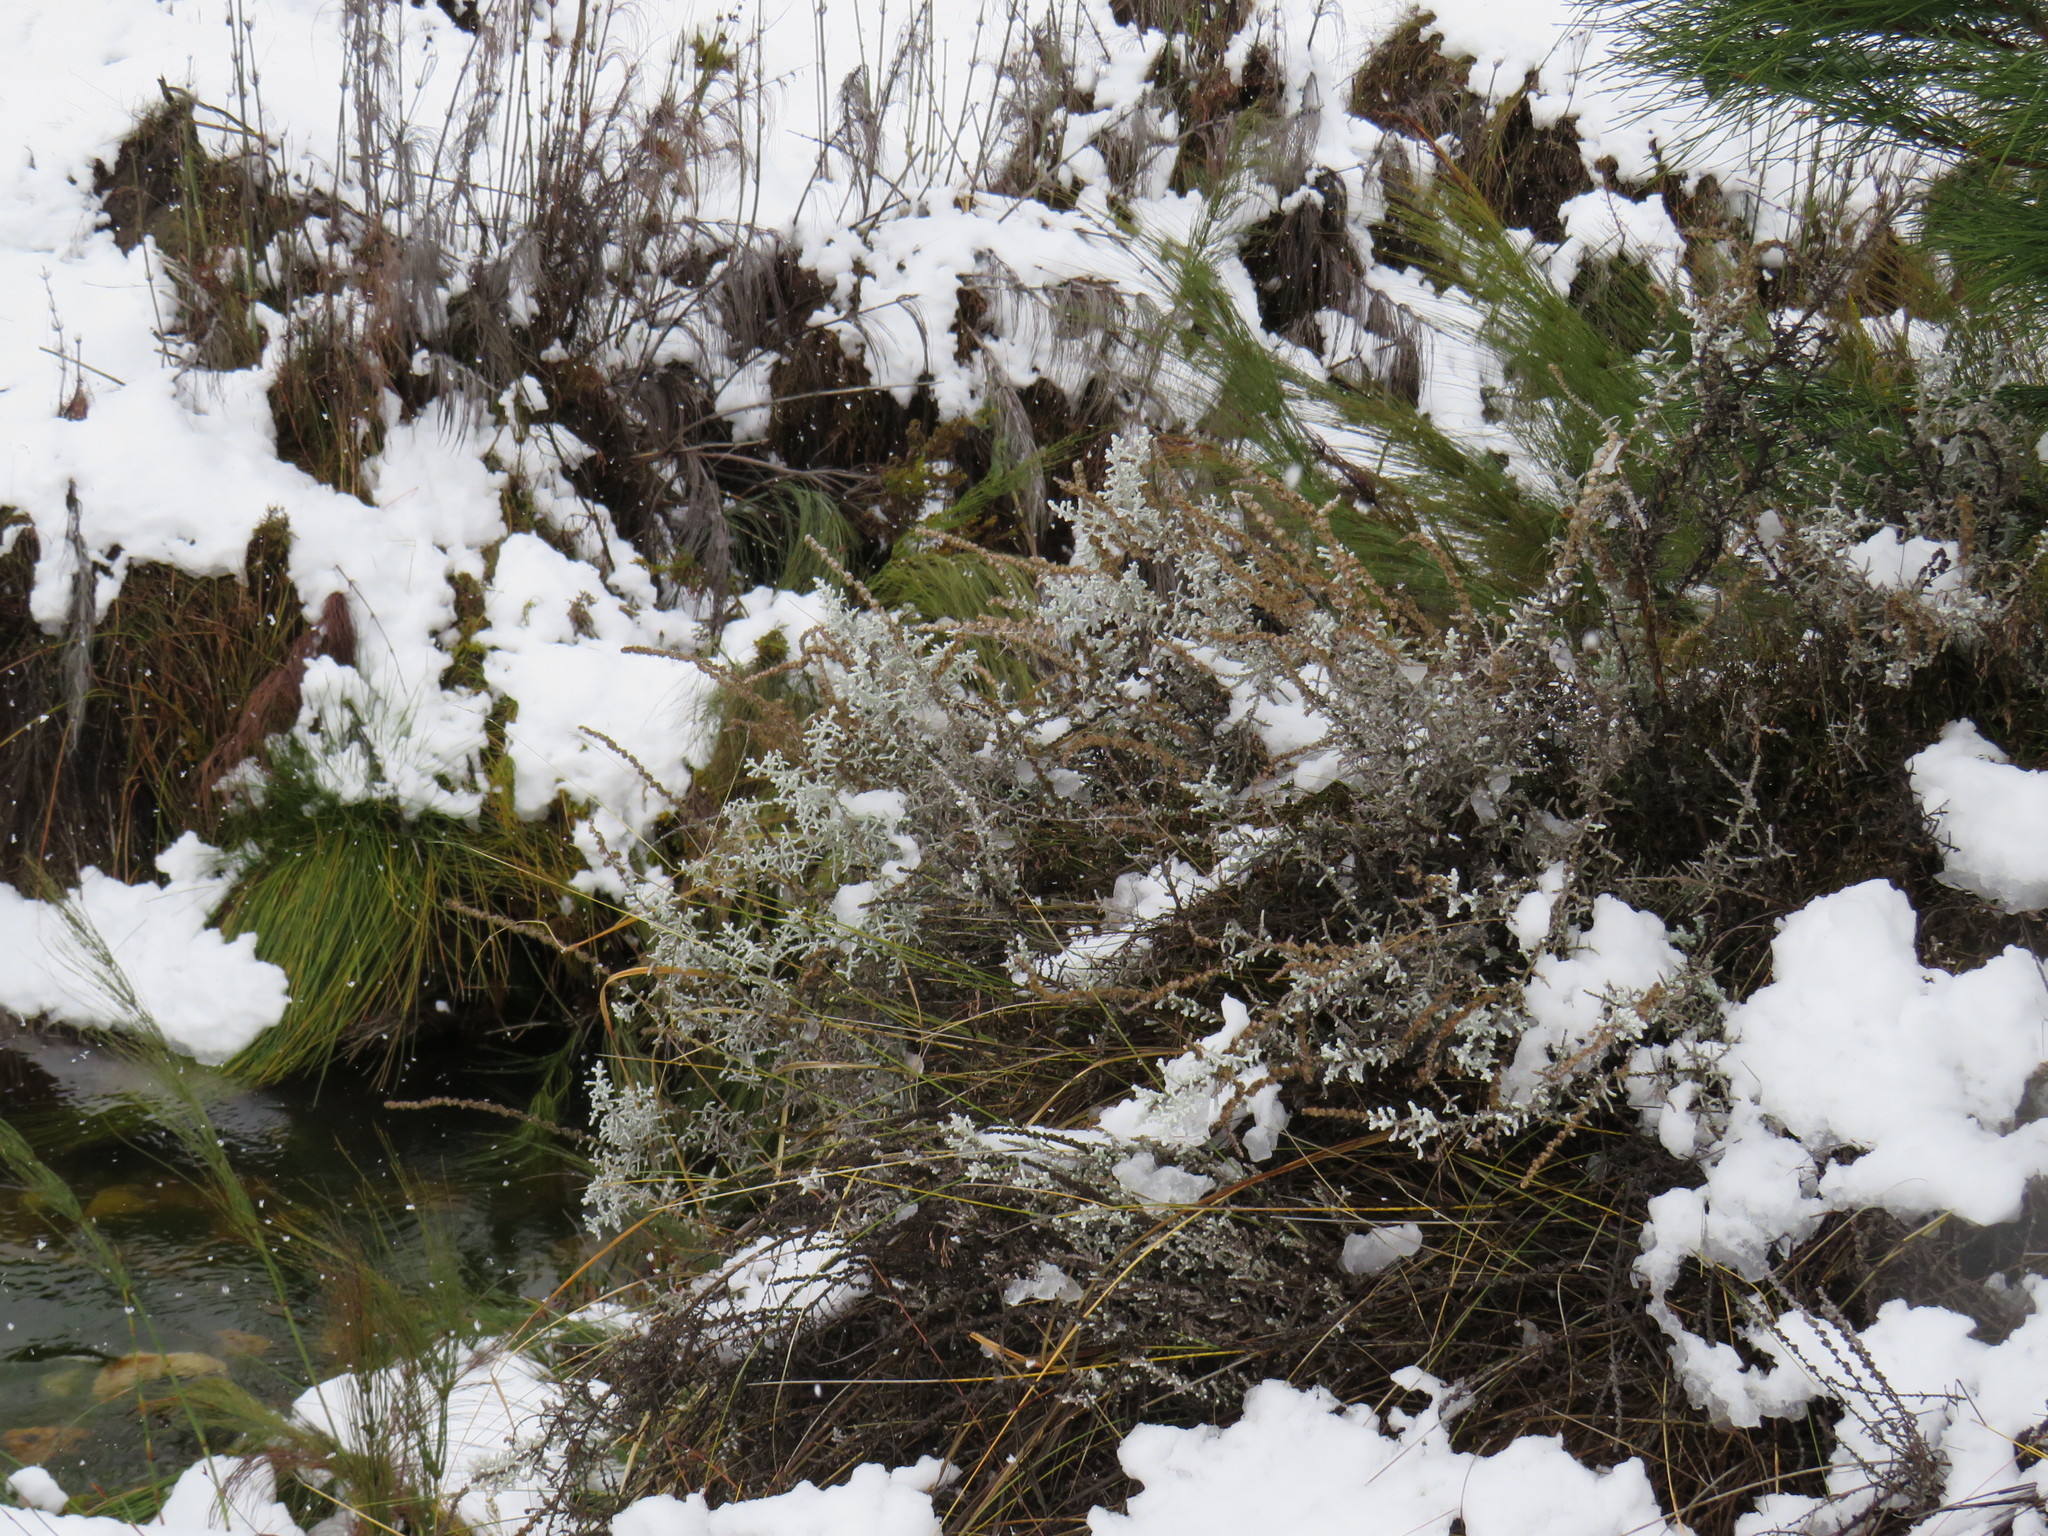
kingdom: Plantae
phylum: Tracheophyta
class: Magnoliopsida
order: Asterales
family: Asteraceae
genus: Seriphium
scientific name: Seriphium plumosum
